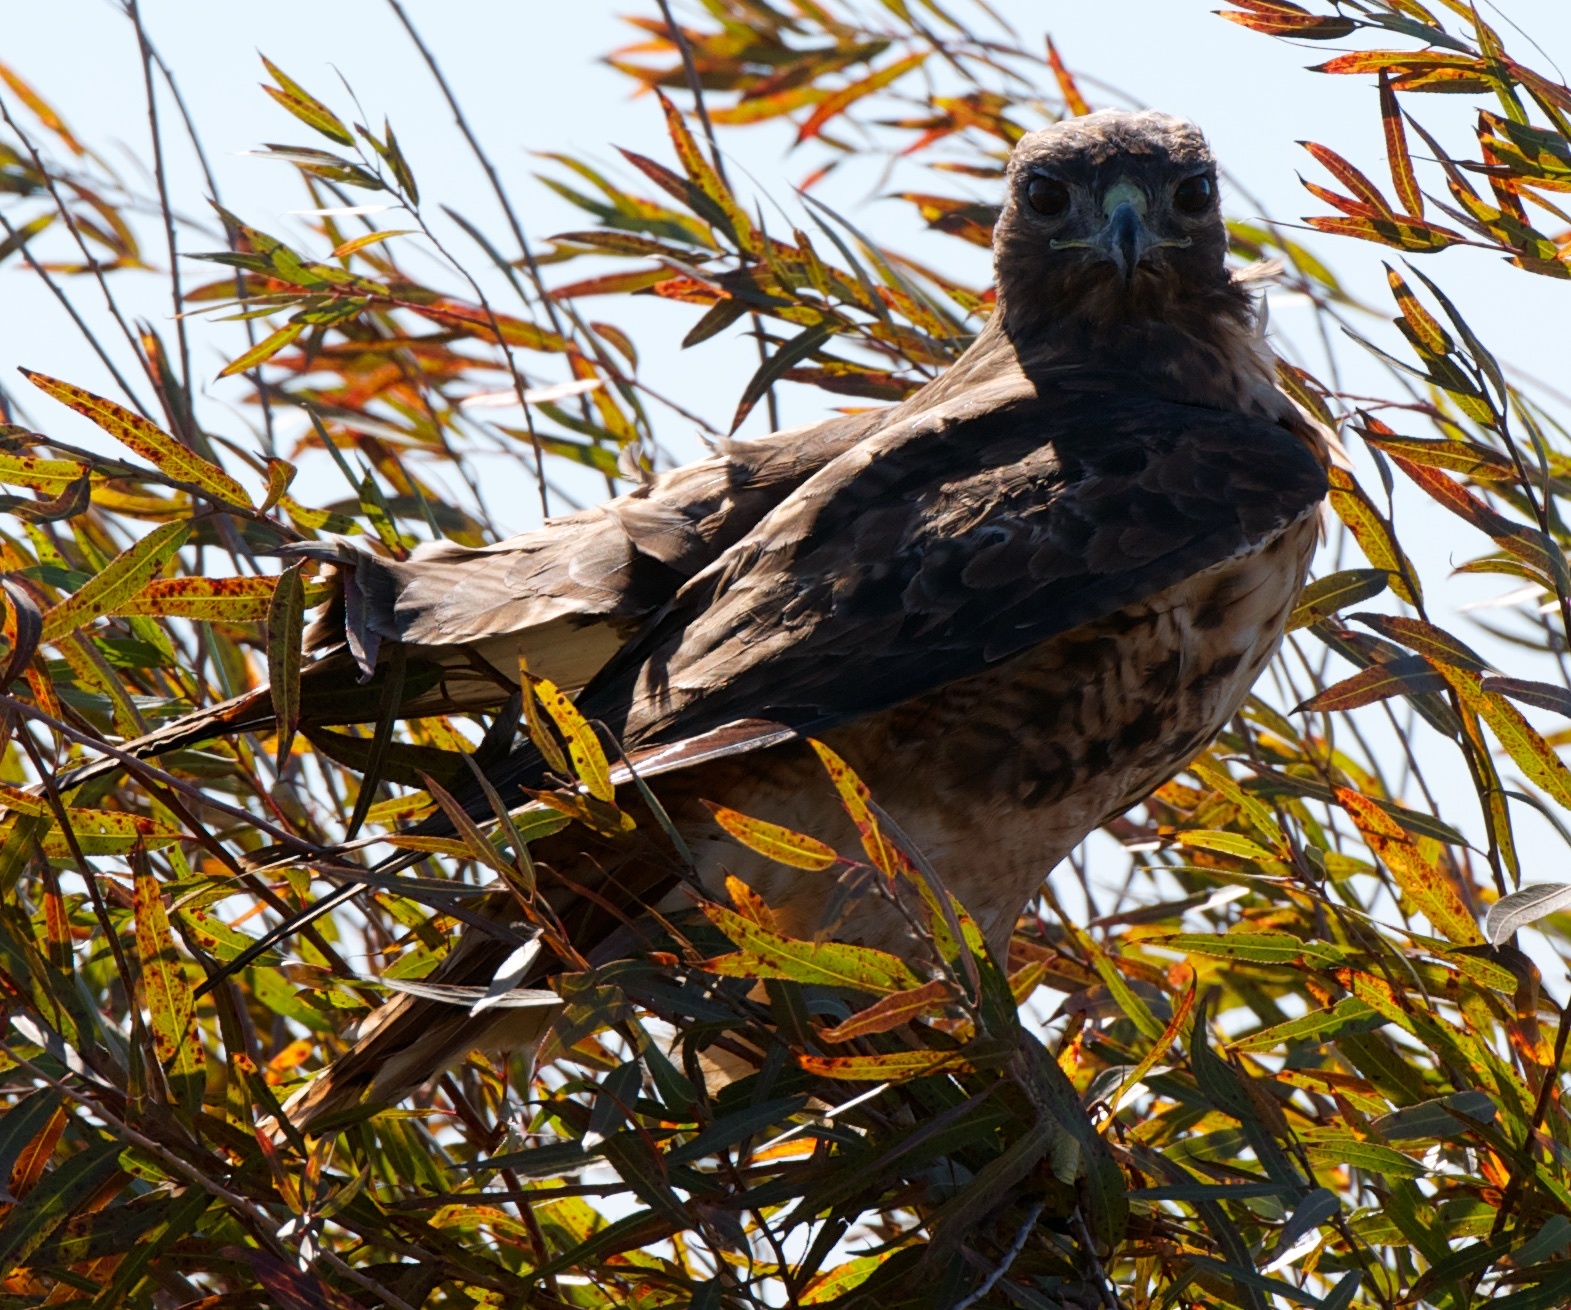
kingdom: Animalia
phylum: Chordata
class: Aves
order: Accipitriformes
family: Accipitridae
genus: Buteo
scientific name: Buteo jamaicensis
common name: Red-tailed hawk
